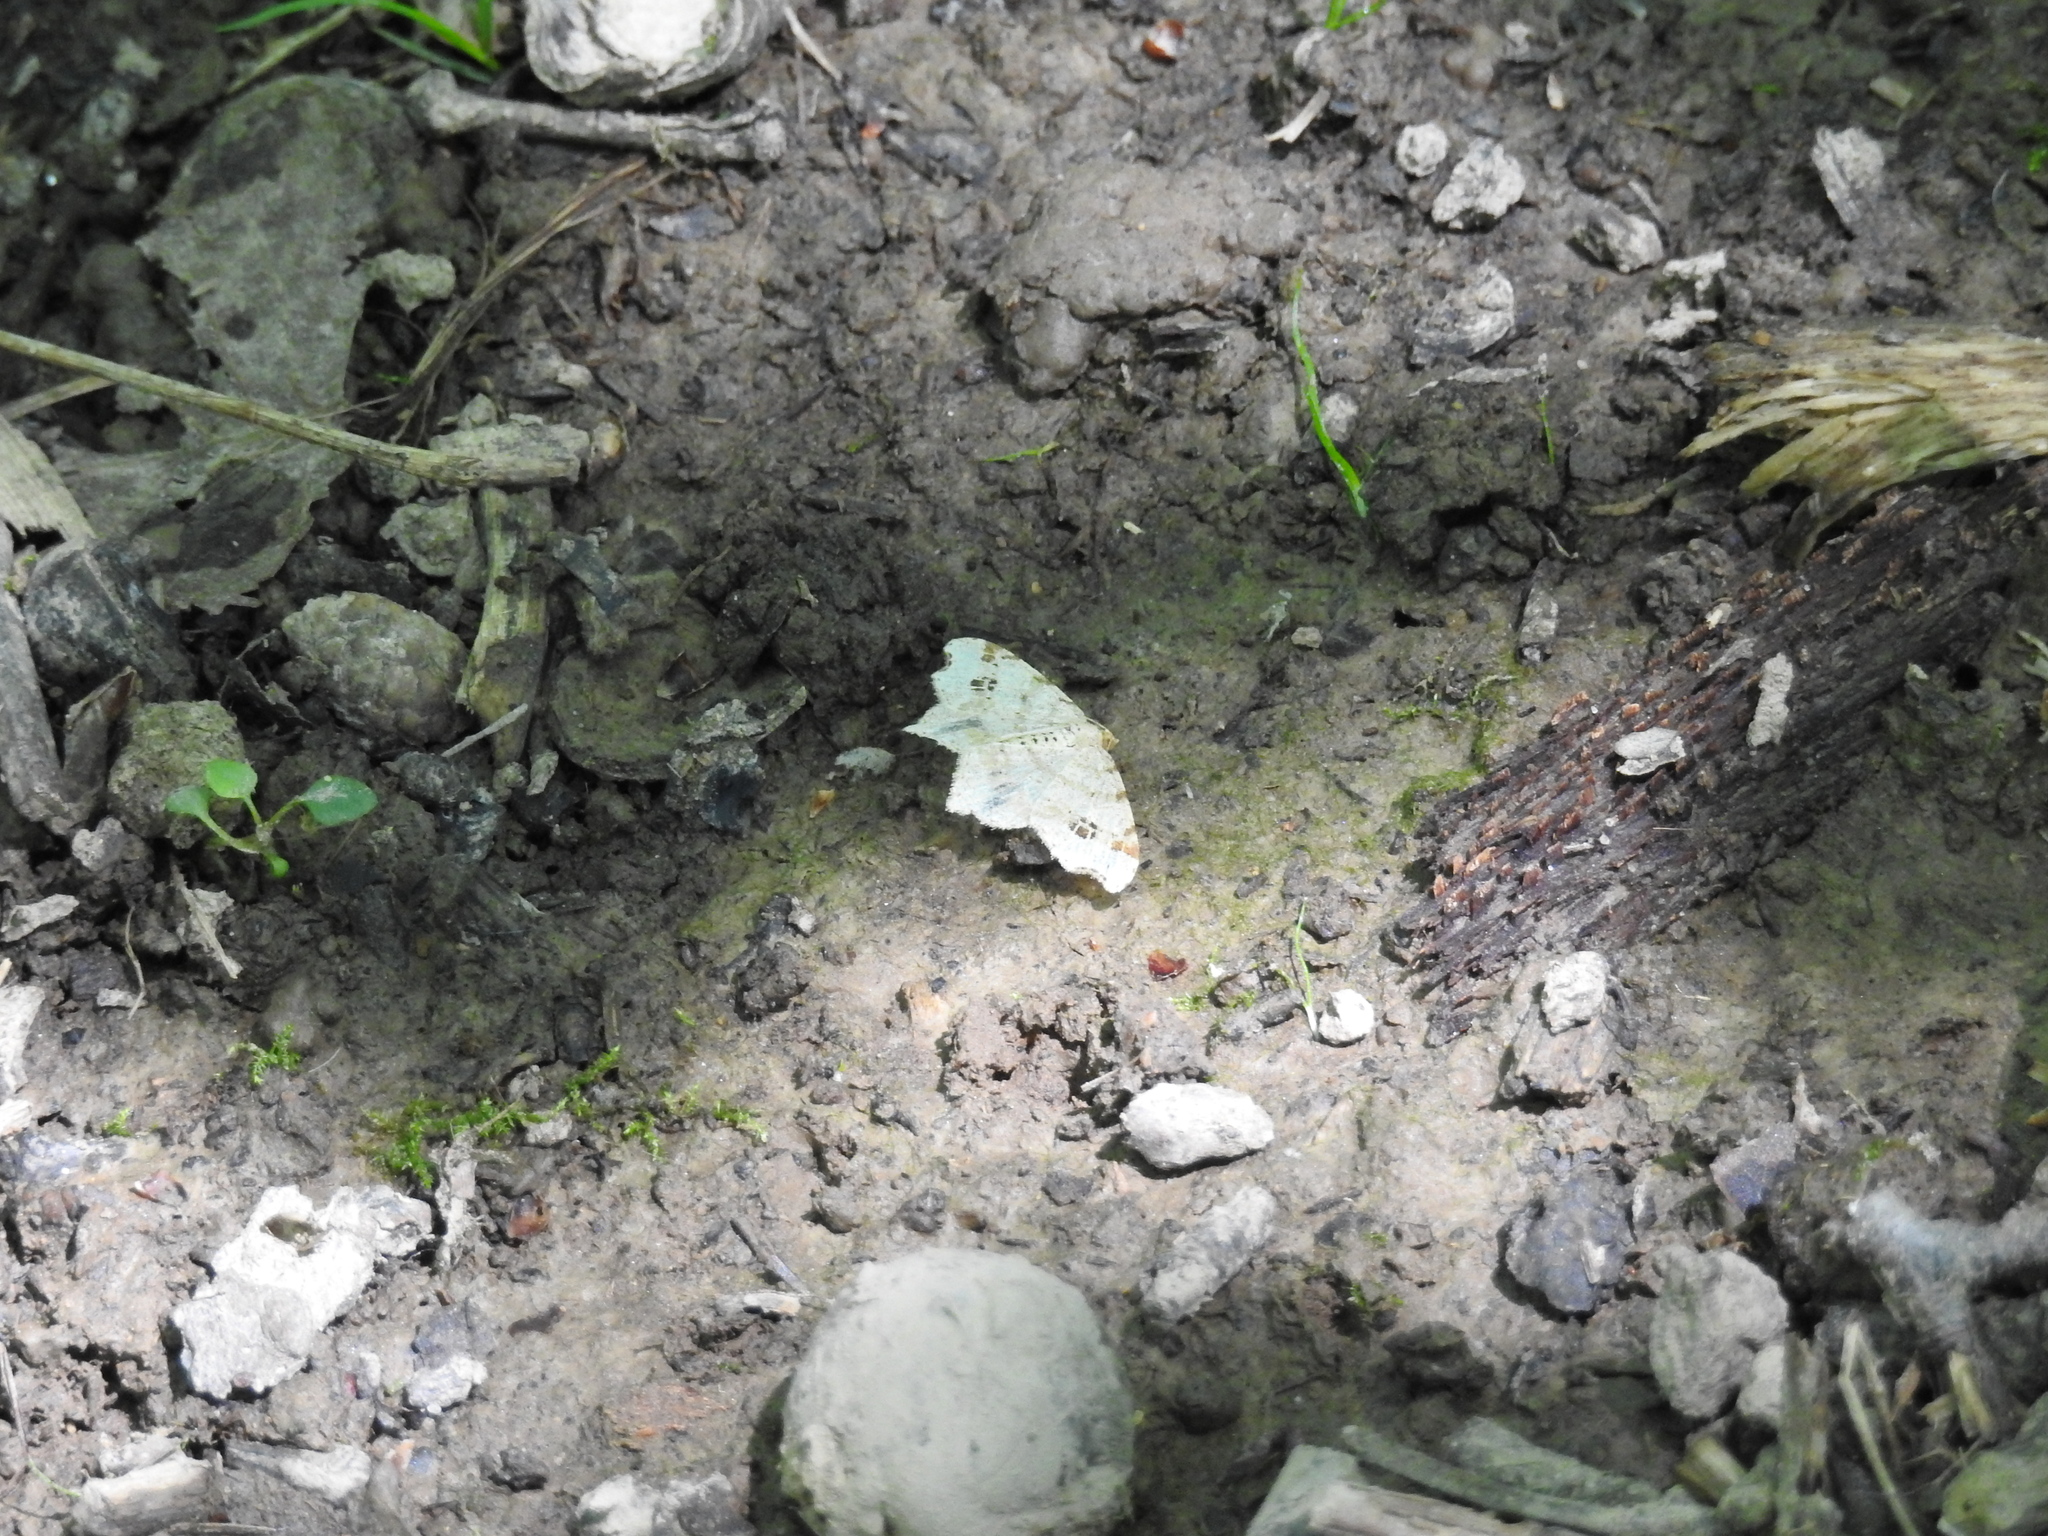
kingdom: Animalia
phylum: Arthropoda
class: Insecta
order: Lepidoptera
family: Geometridae
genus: Macaria
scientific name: Macaria aemulataria
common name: Common angle
